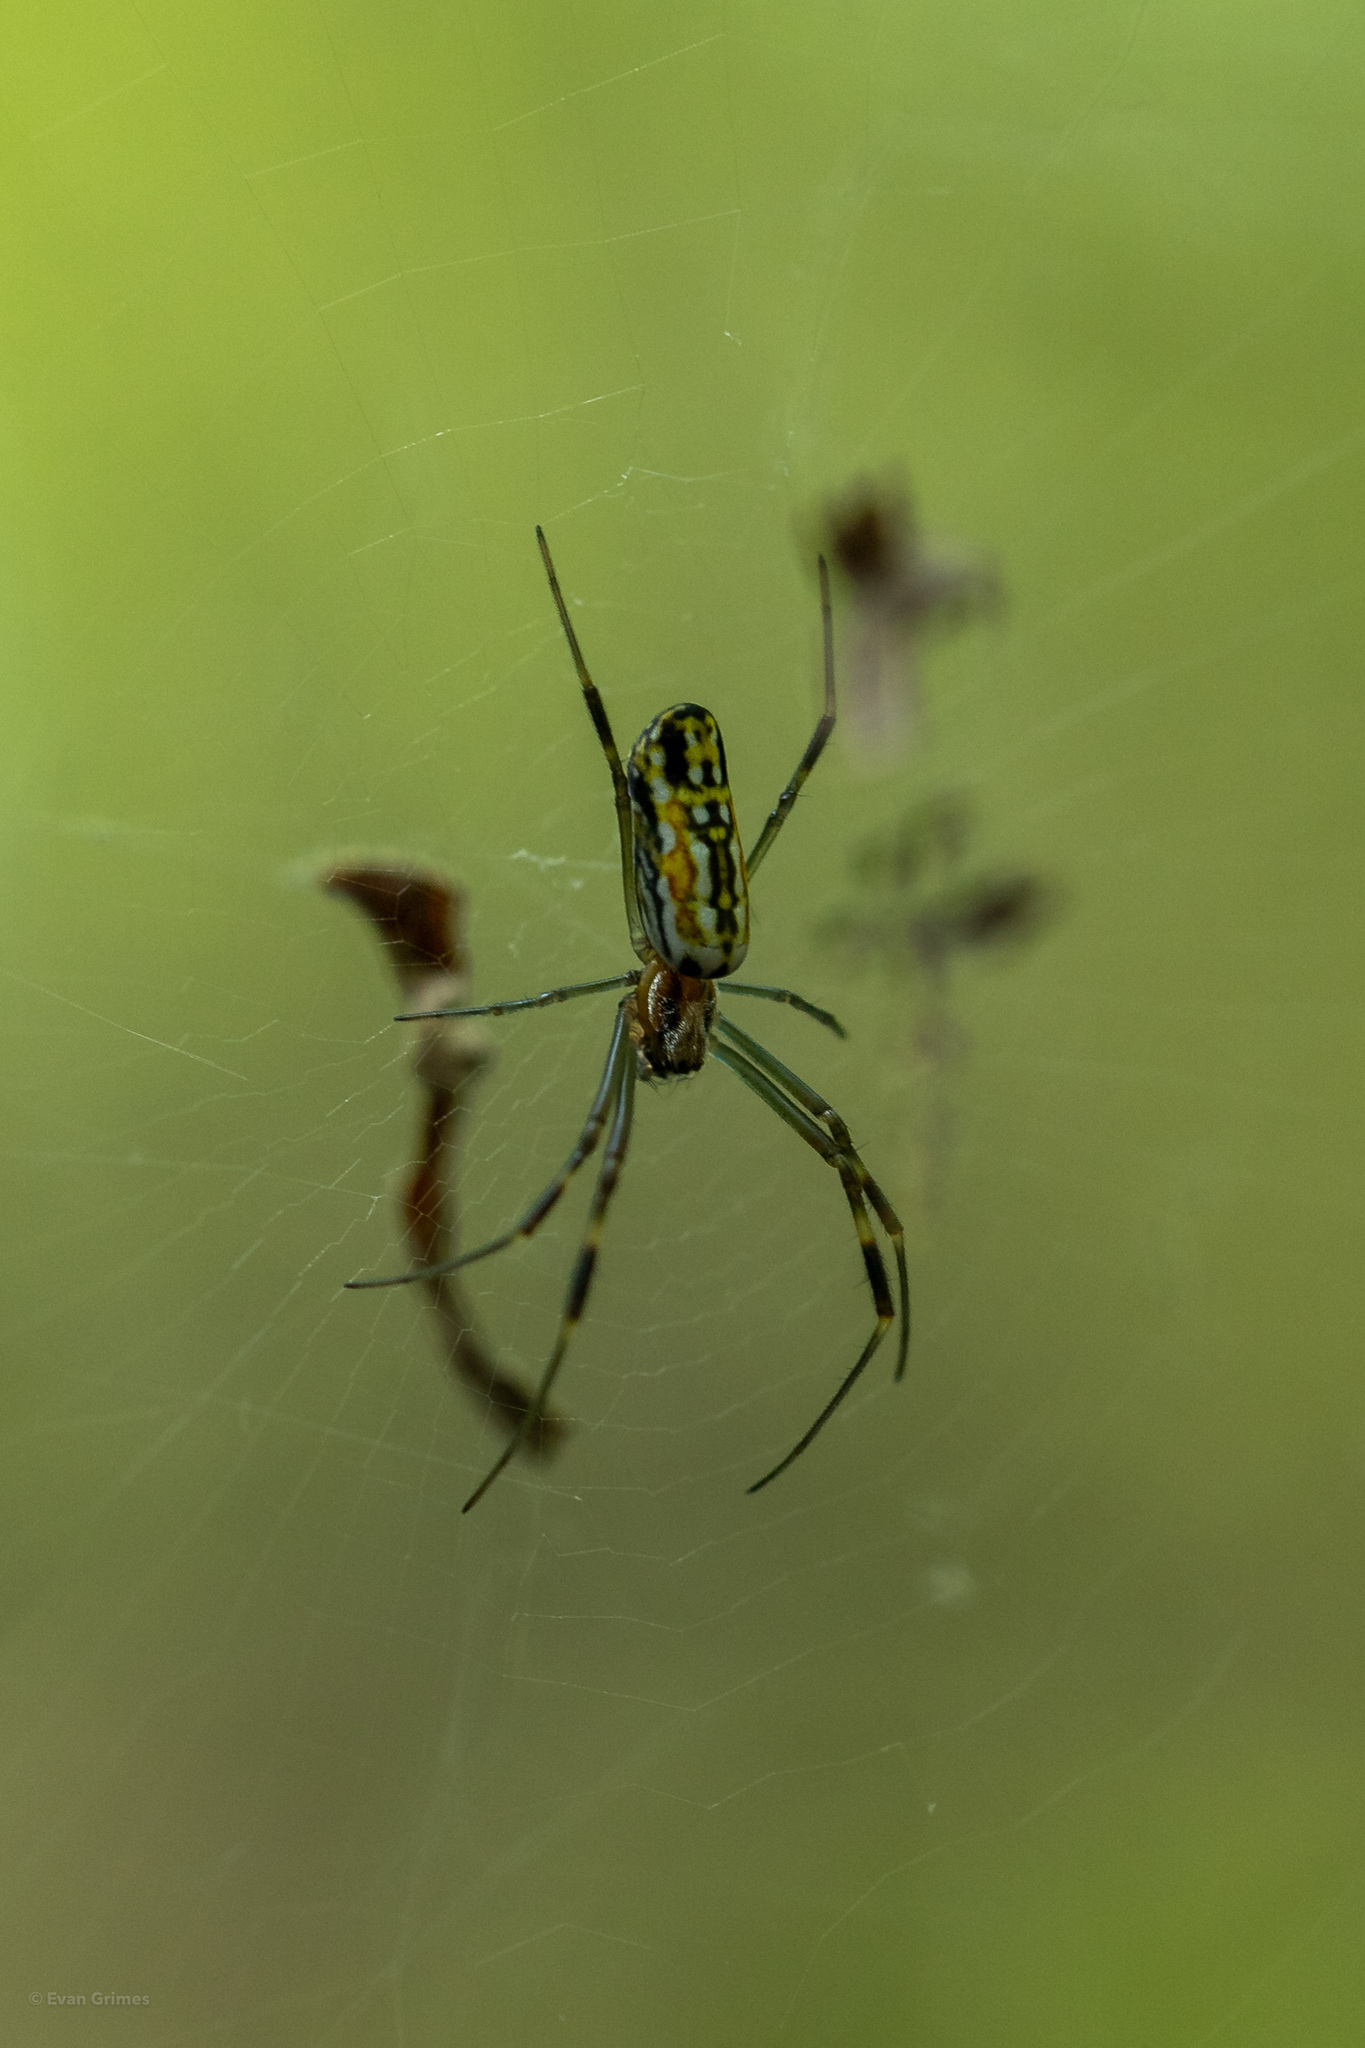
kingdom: Animalia
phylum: Arthropoda
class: Arachnida
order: Araneae
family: Araneidae
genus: Trichonephila
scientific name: Trichonephila clavipes
